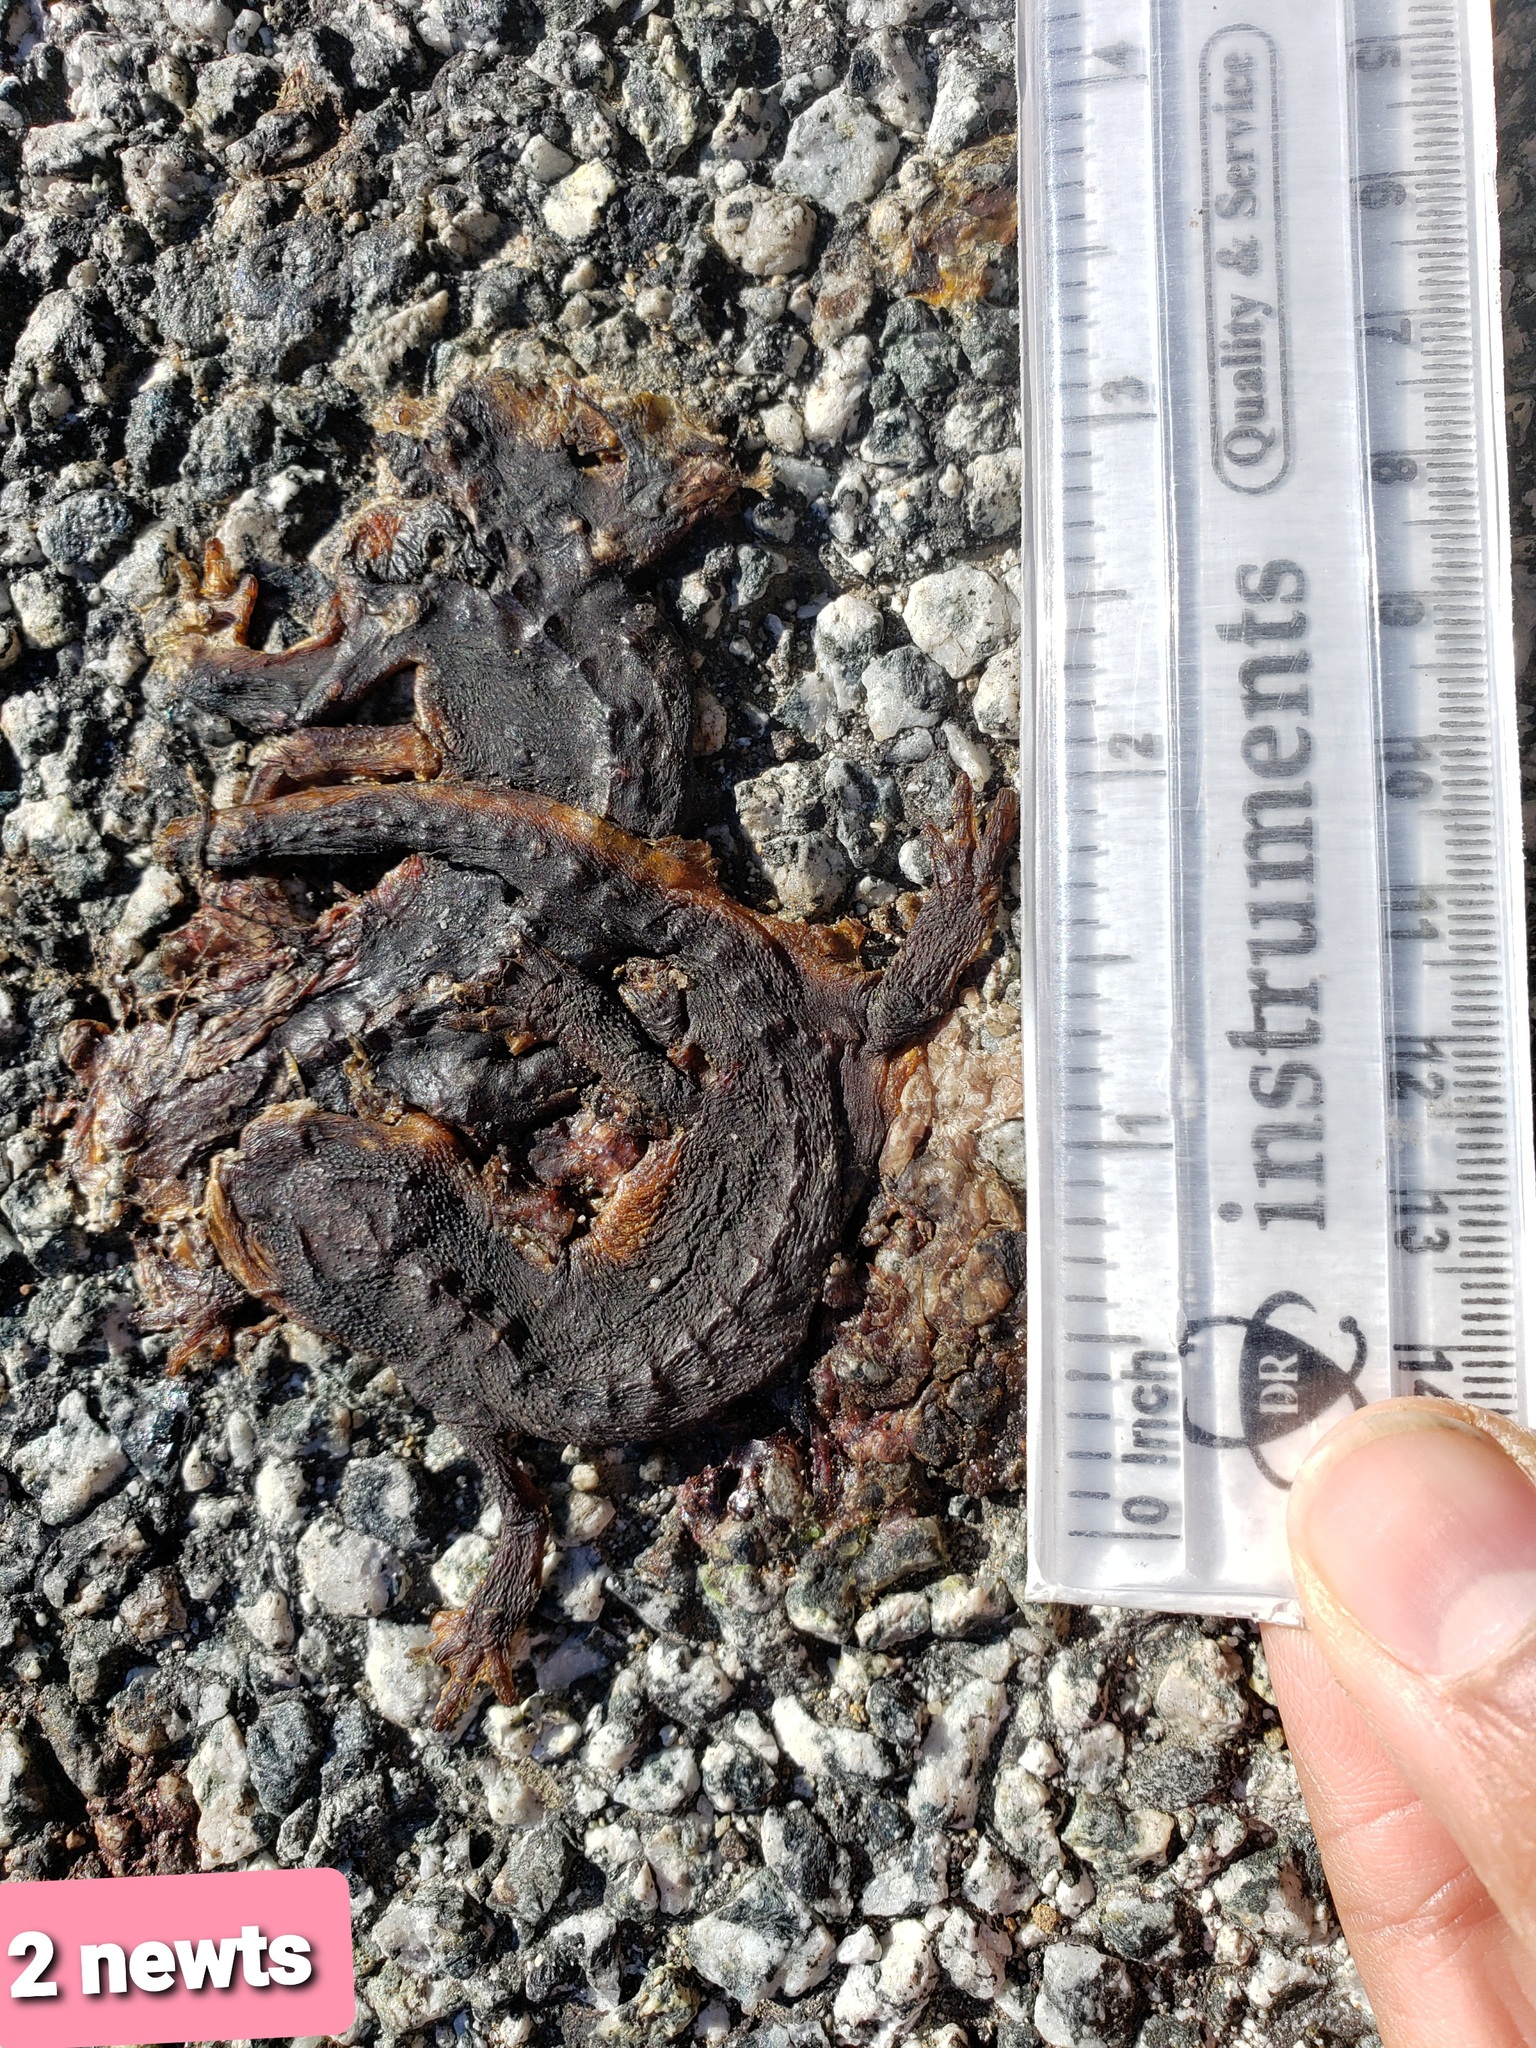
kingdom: Animalia
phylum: Chordata
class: Amphibia
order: Caudata
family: Salamandridae
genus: Taricha
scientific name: Taricha
